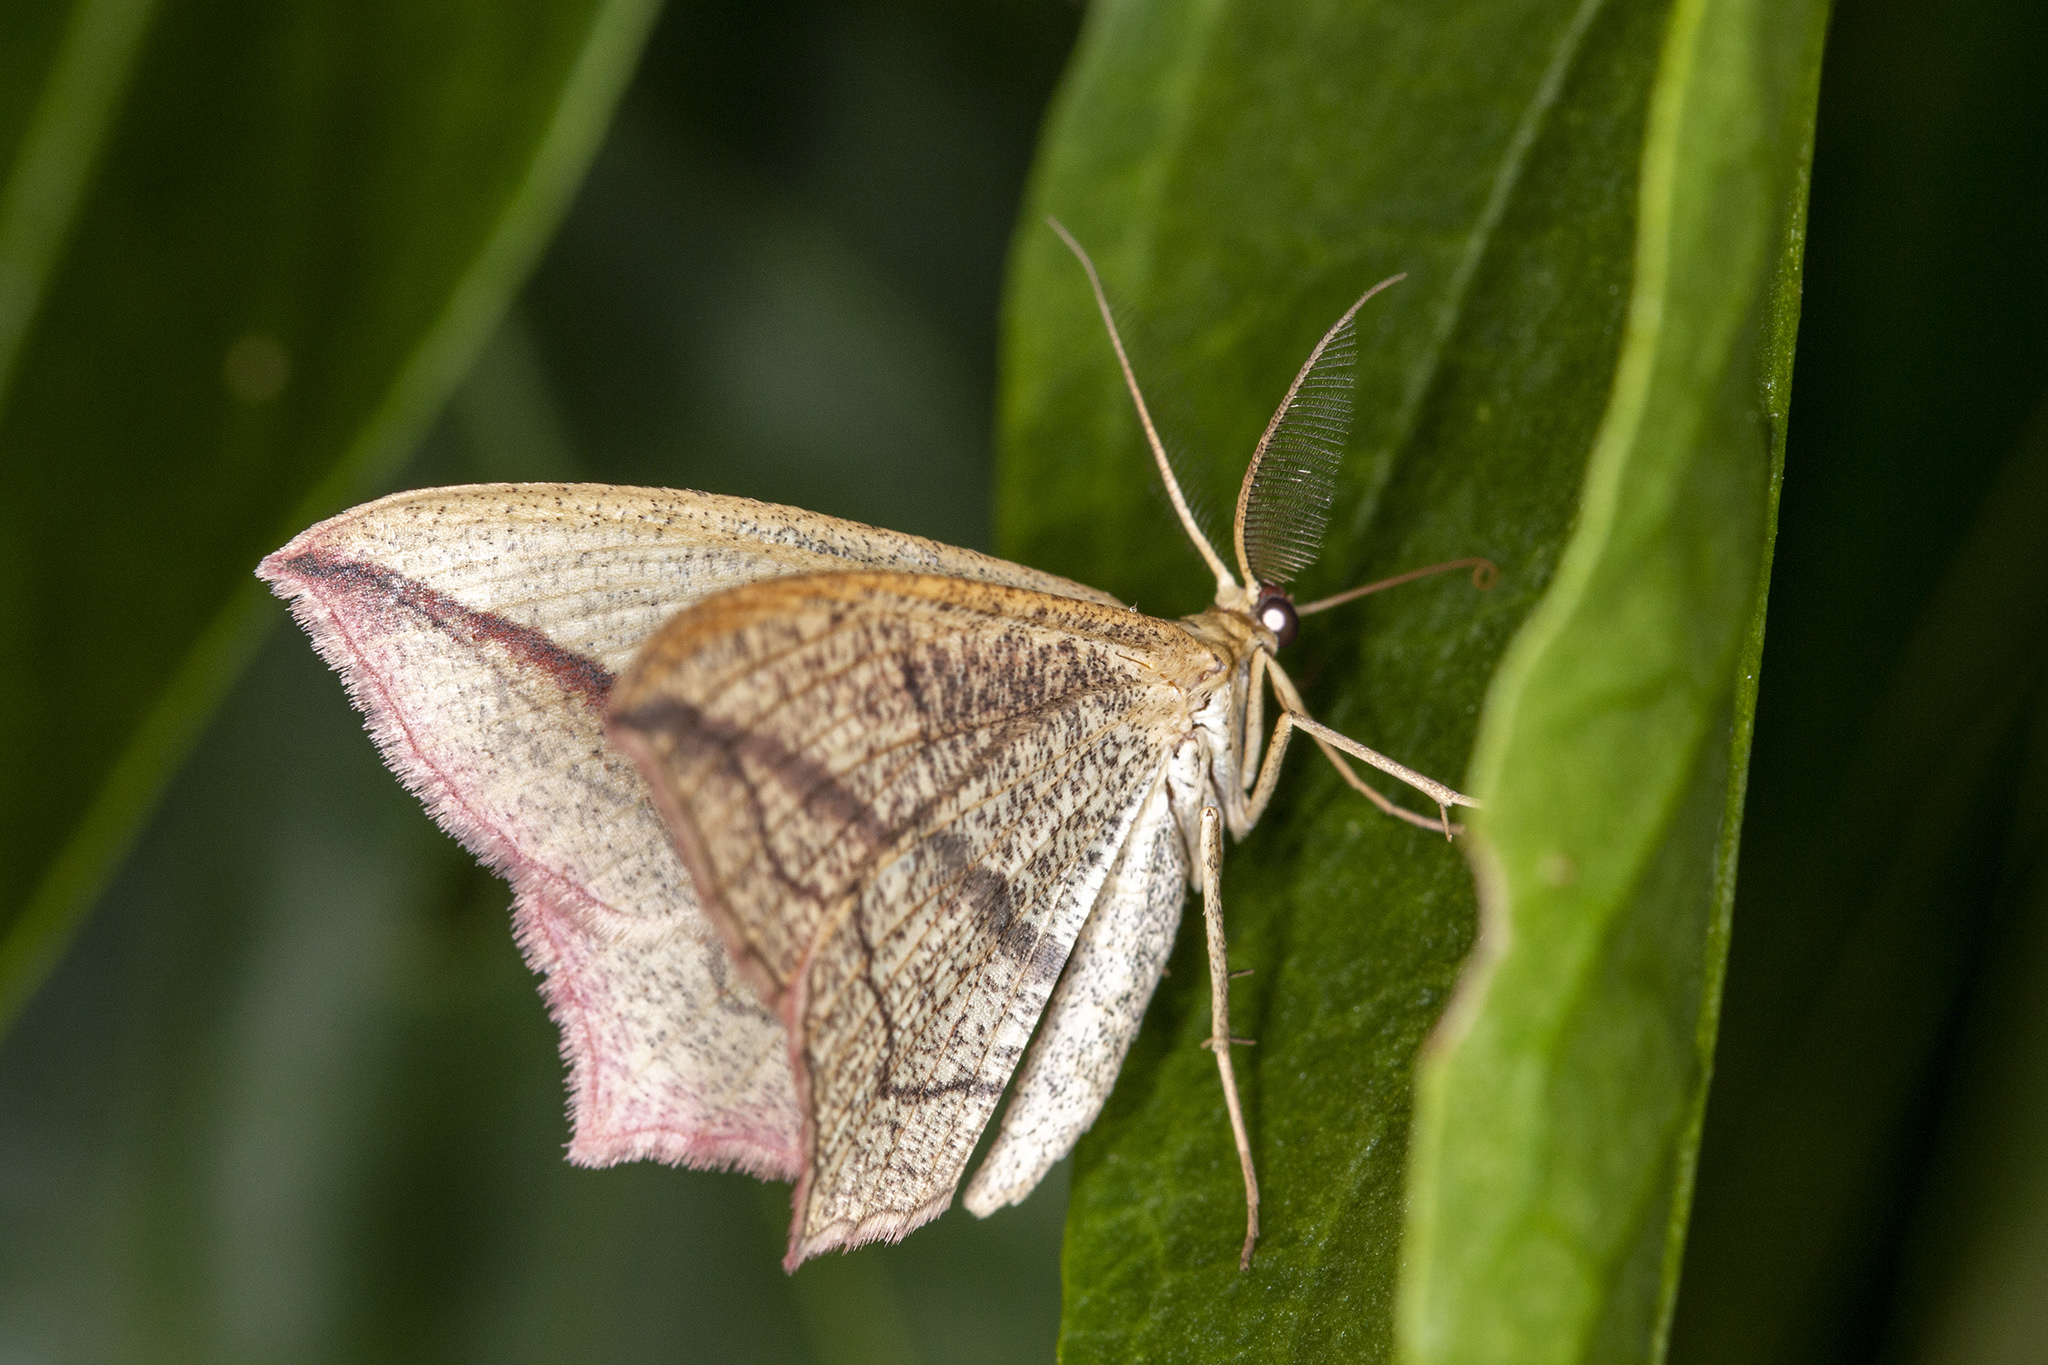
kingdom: Animalia
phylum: Arthropoda
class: Insecta
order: Lepidoptera
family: Geometridae
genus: Timandra
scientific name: Timandra comae
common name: Blood-vein
